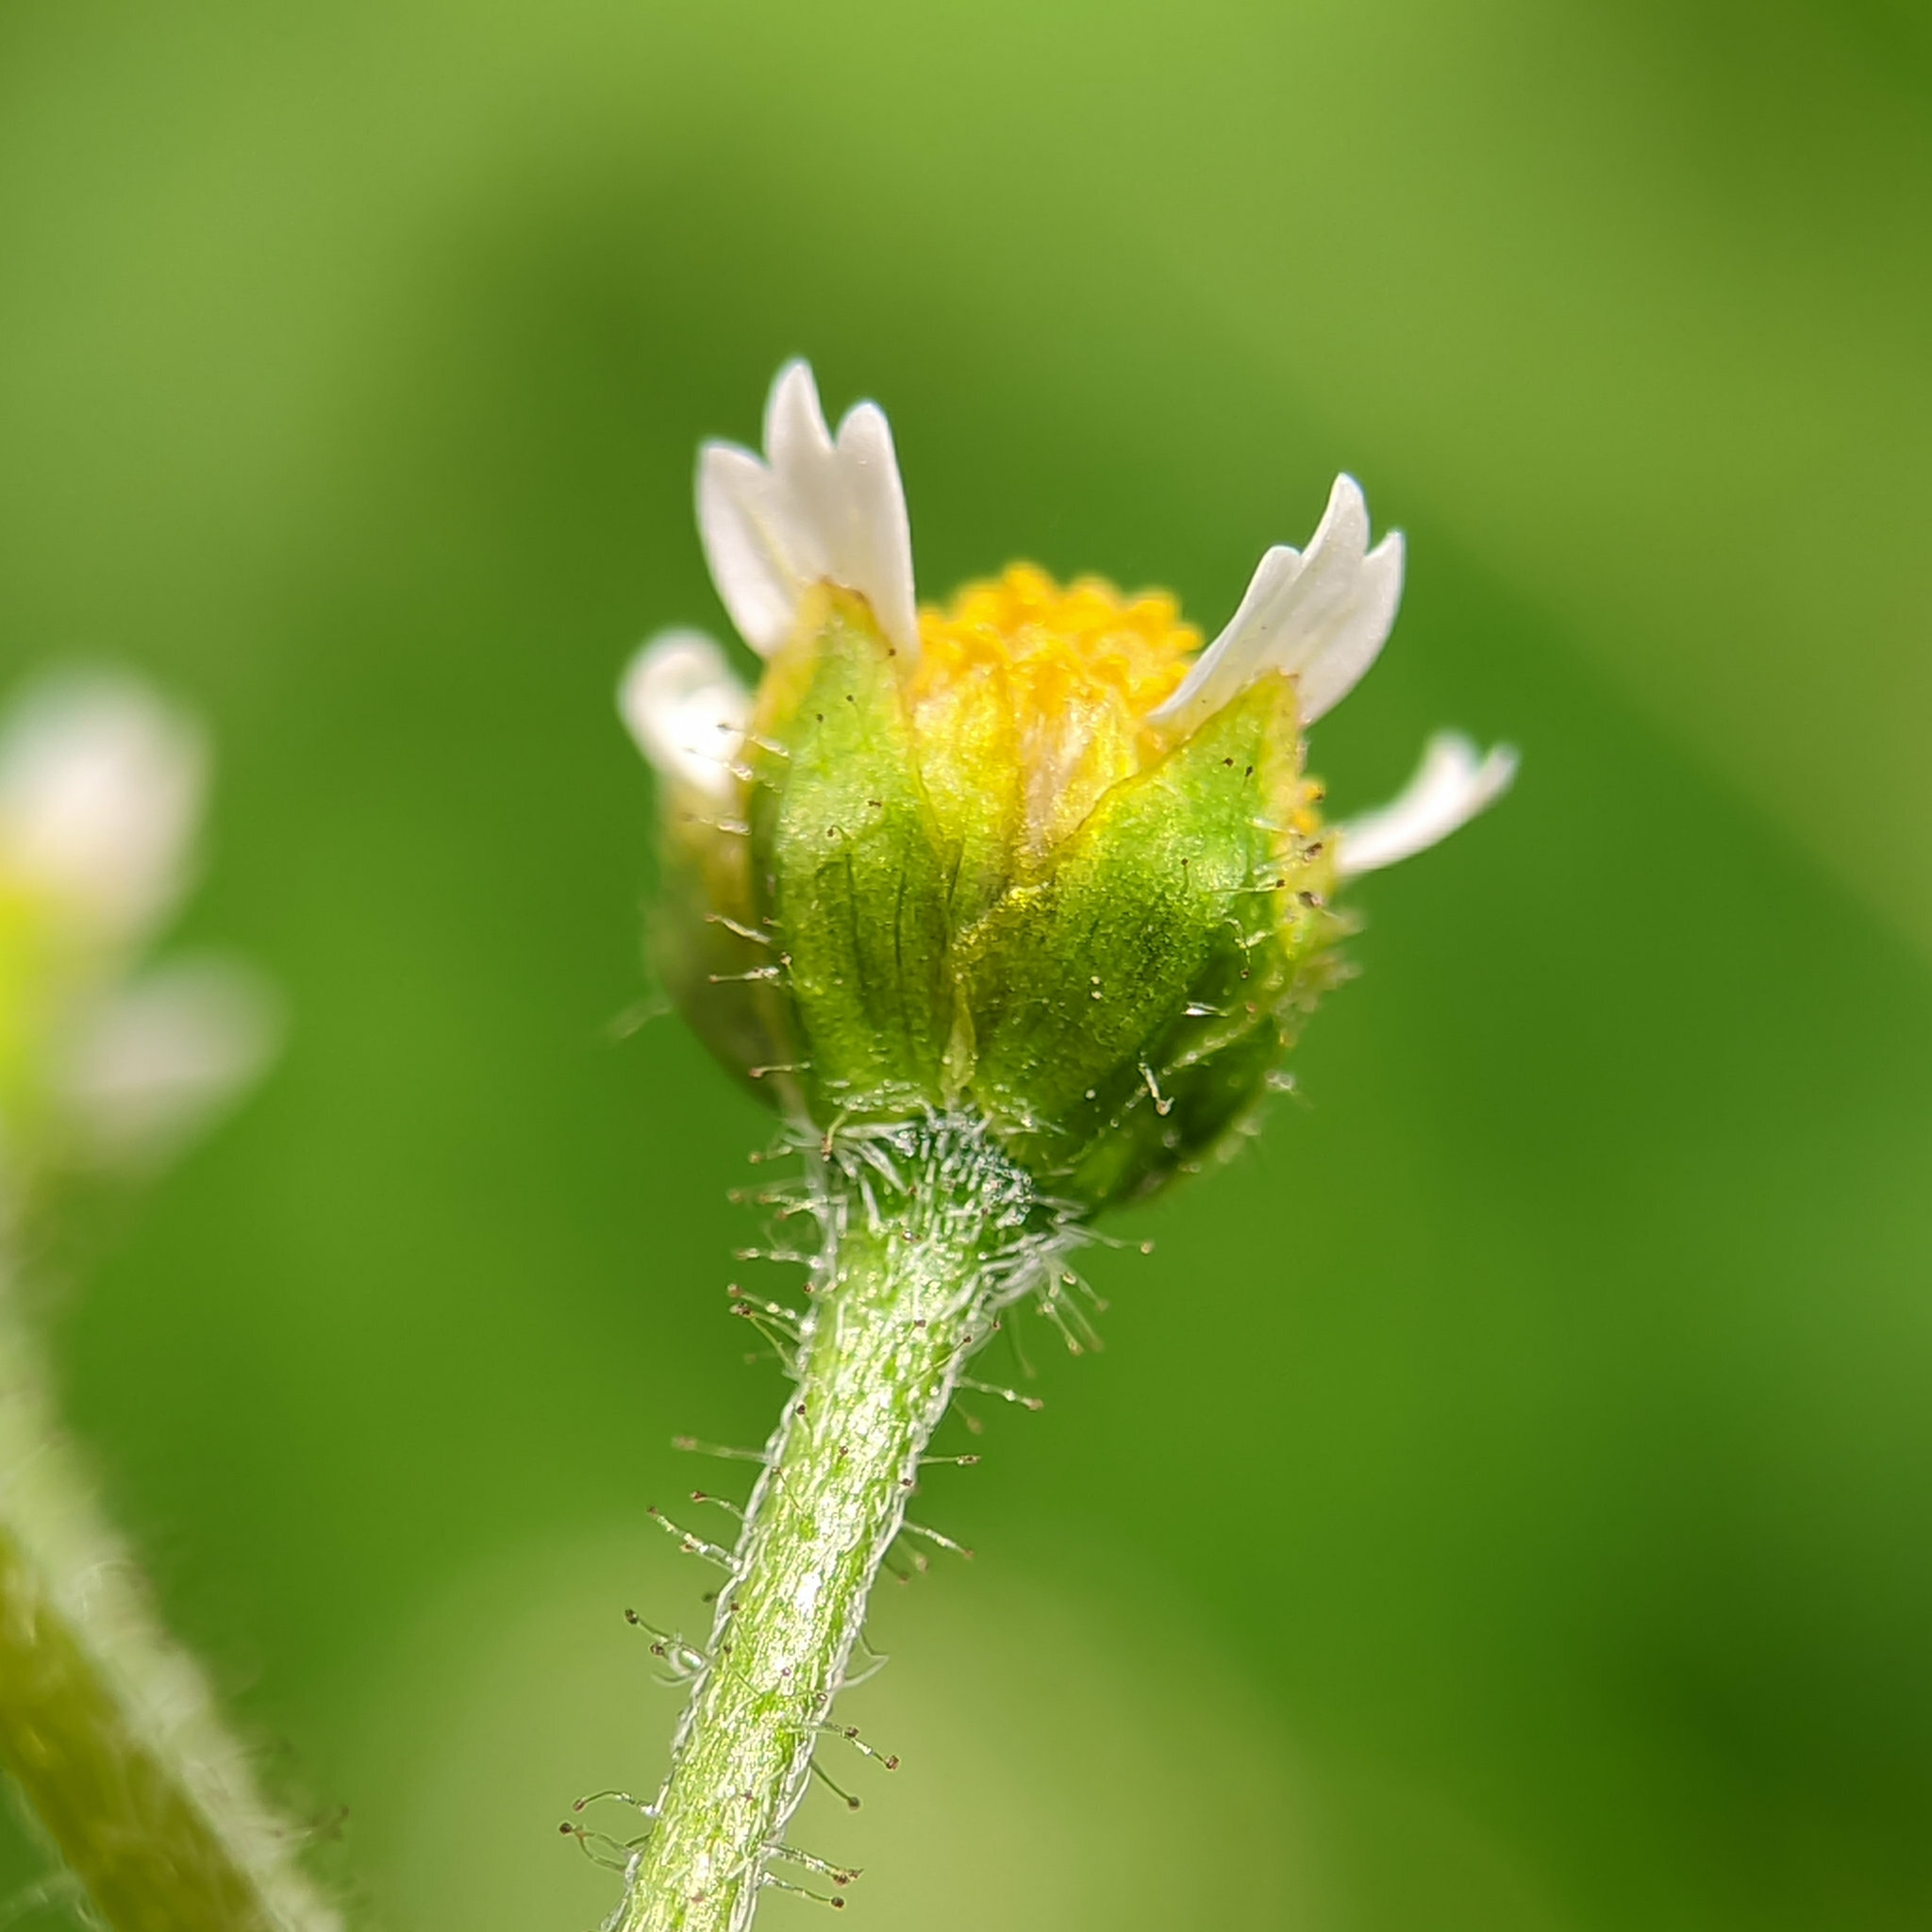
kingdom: Plantae
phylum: Tracheophyta
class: Magnoliopsida
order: Asterales
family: Asteraceae
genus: Galinsoga
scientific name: Galinsoga quadriradiata
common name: Shaggy soldier
